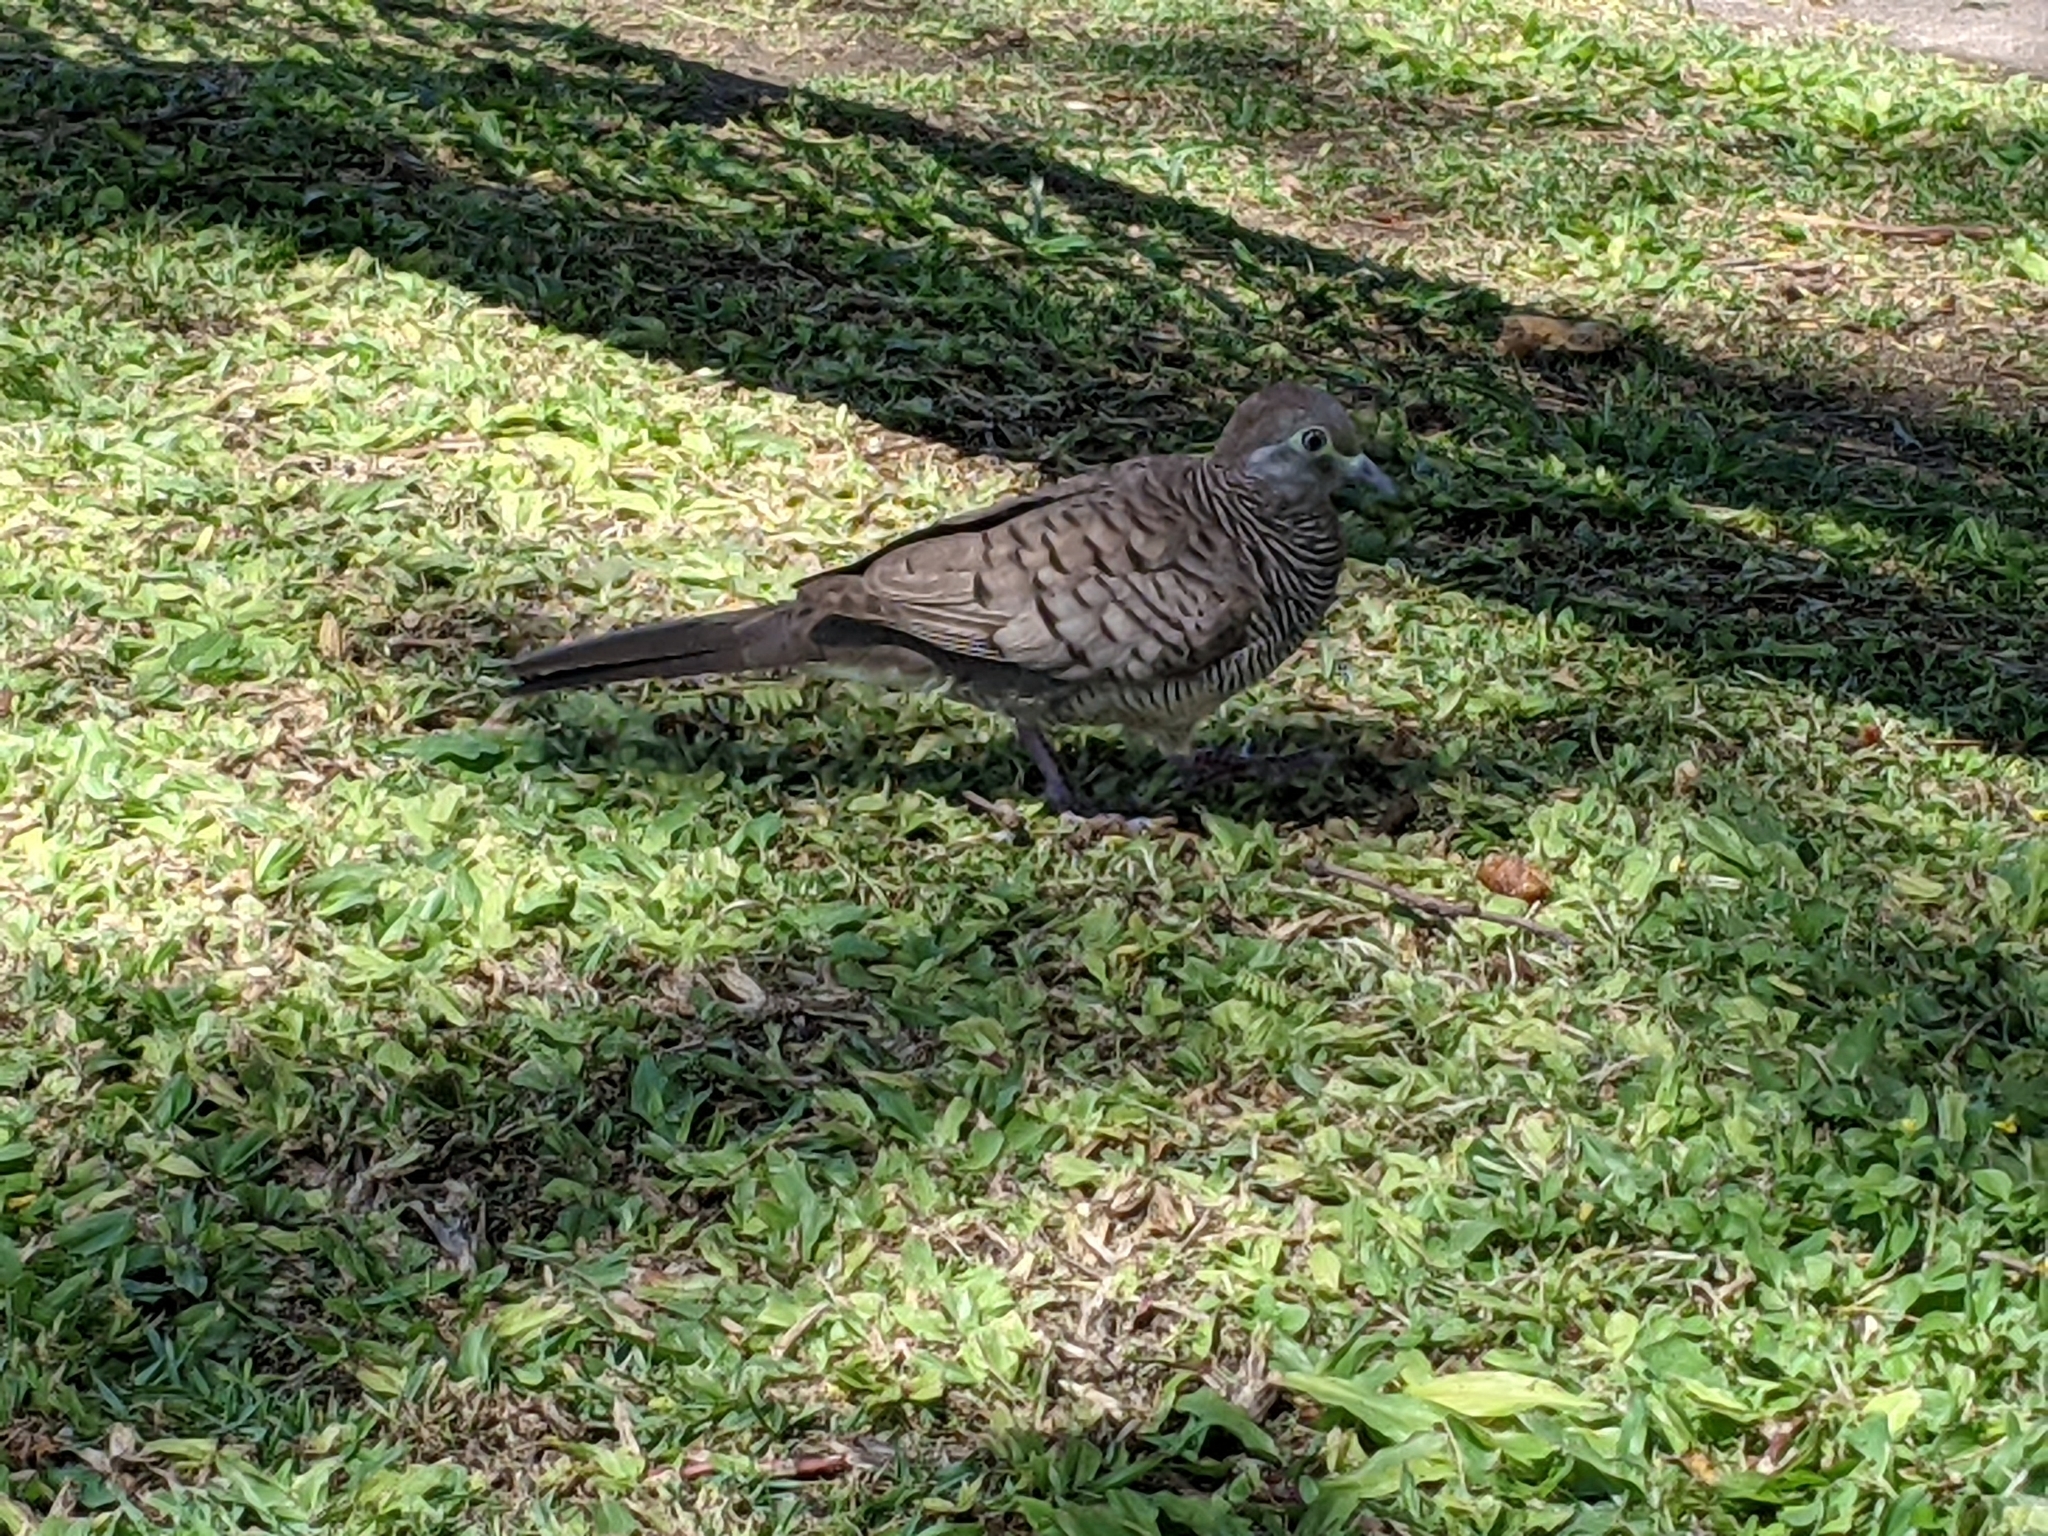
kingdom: Animalia
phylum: Chordata
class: Aves
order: Columbiformes
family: Columbidae
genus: Geopelia
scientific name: Geopelia striata
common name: Zebra dove
